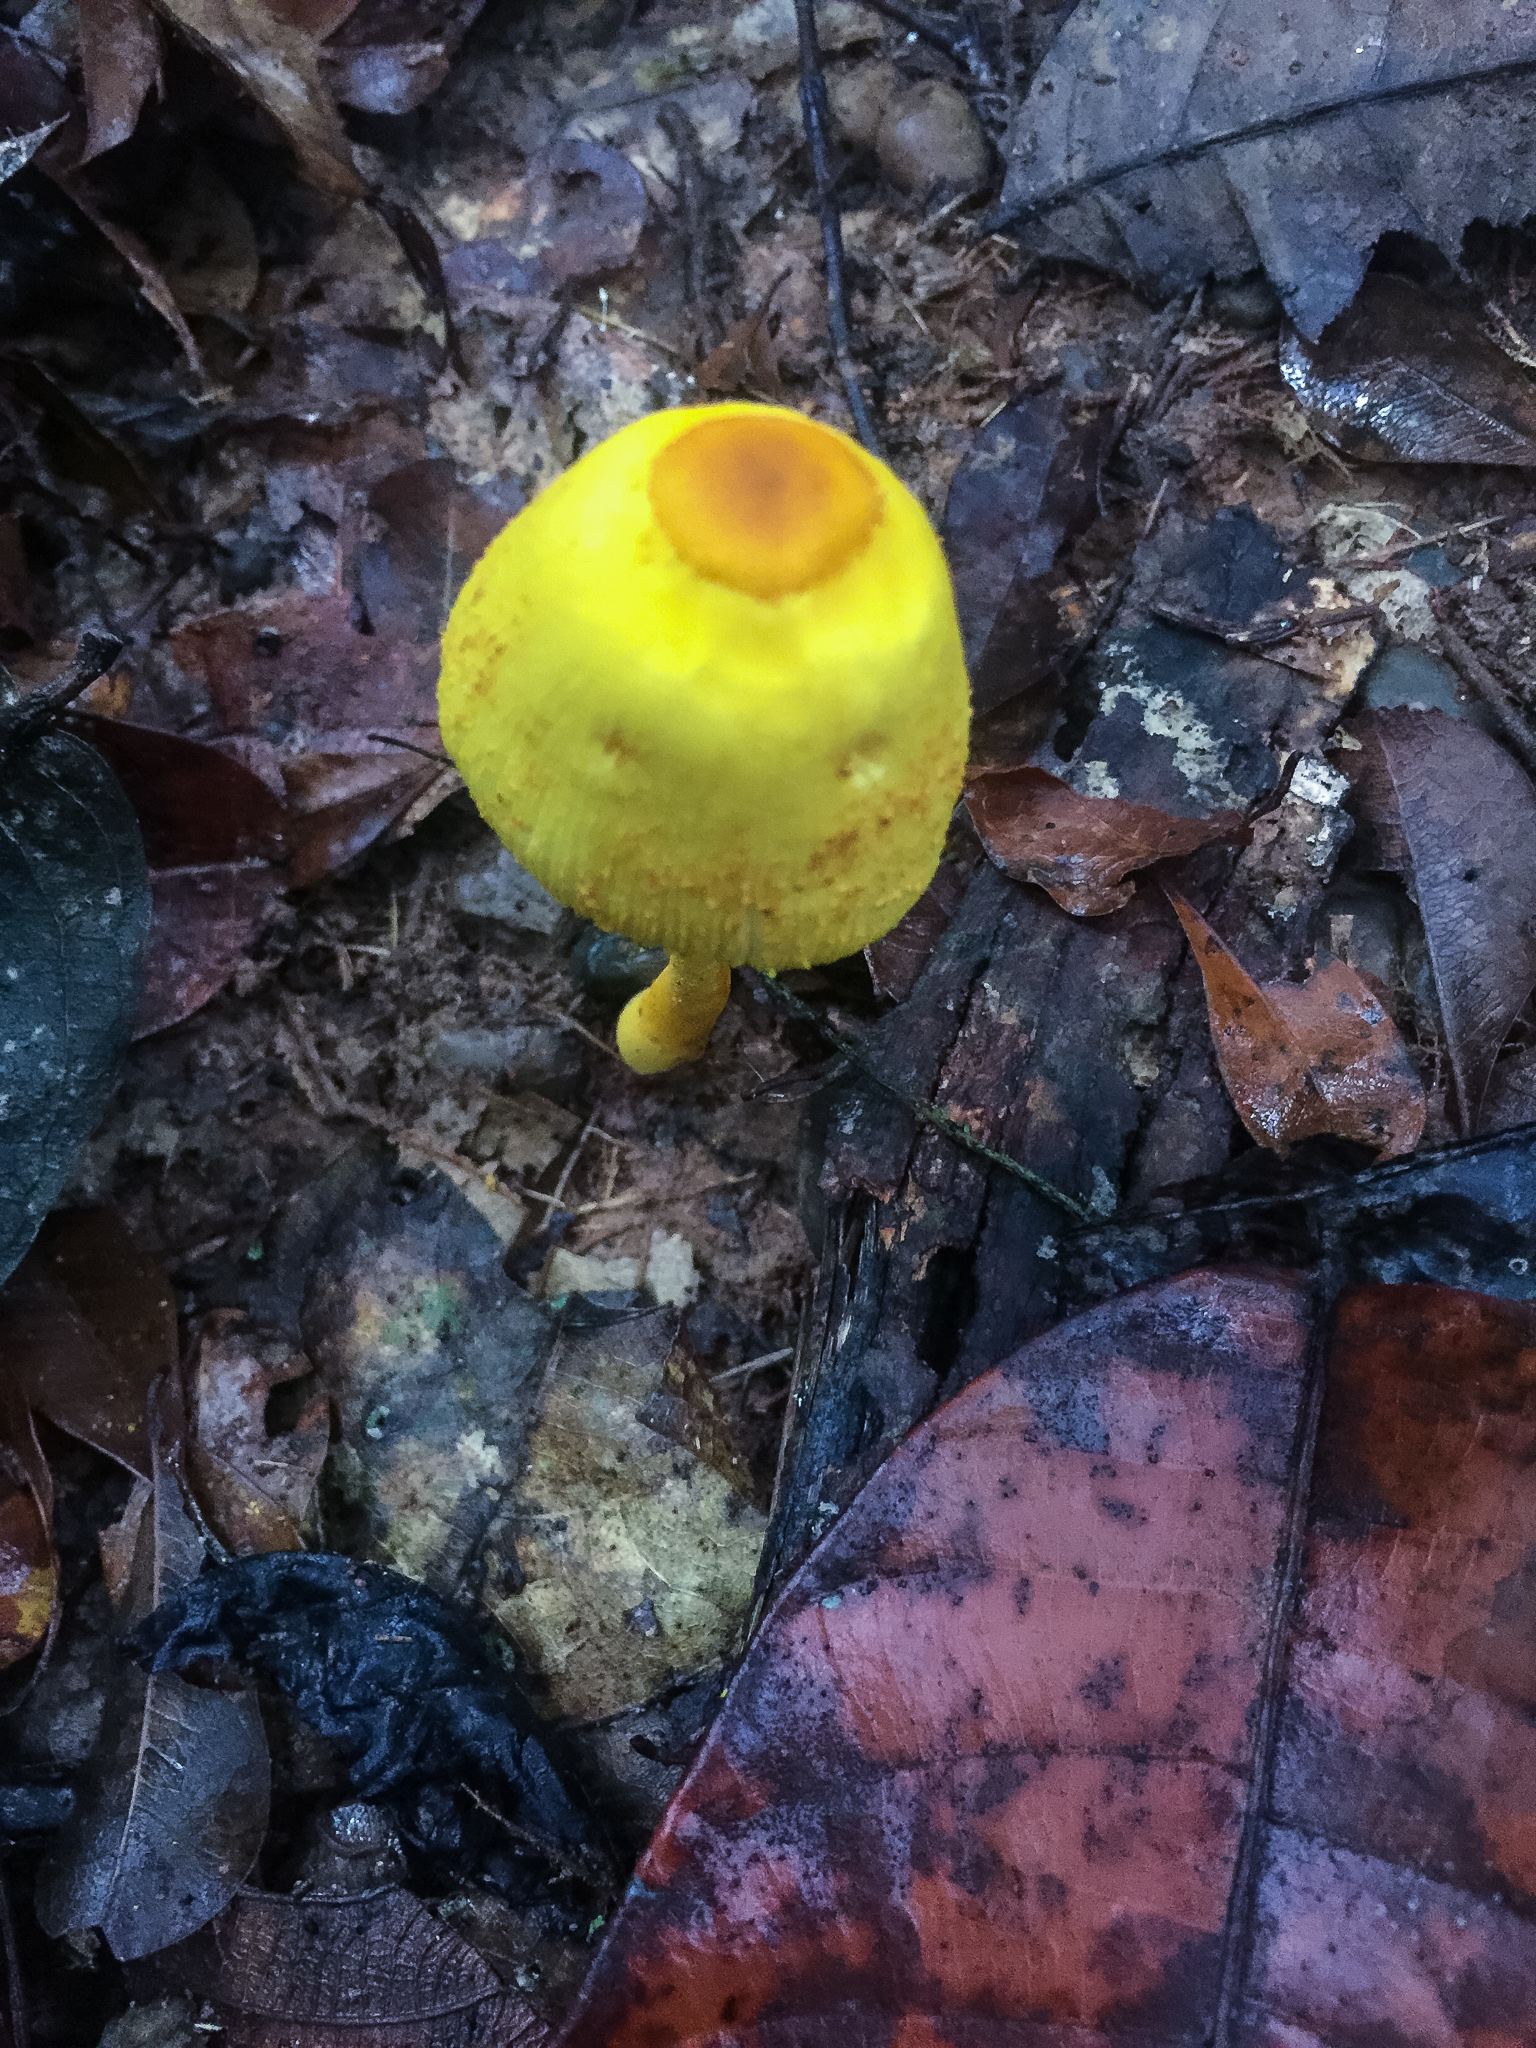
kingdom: Fungi
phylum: Basidiomycota
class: Agaricomycetes
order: Agaricales
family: Agaricaceae
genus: Leucocoprinus
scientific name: Leucocoprinus birnbaumii
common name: Plantpot dapperling
